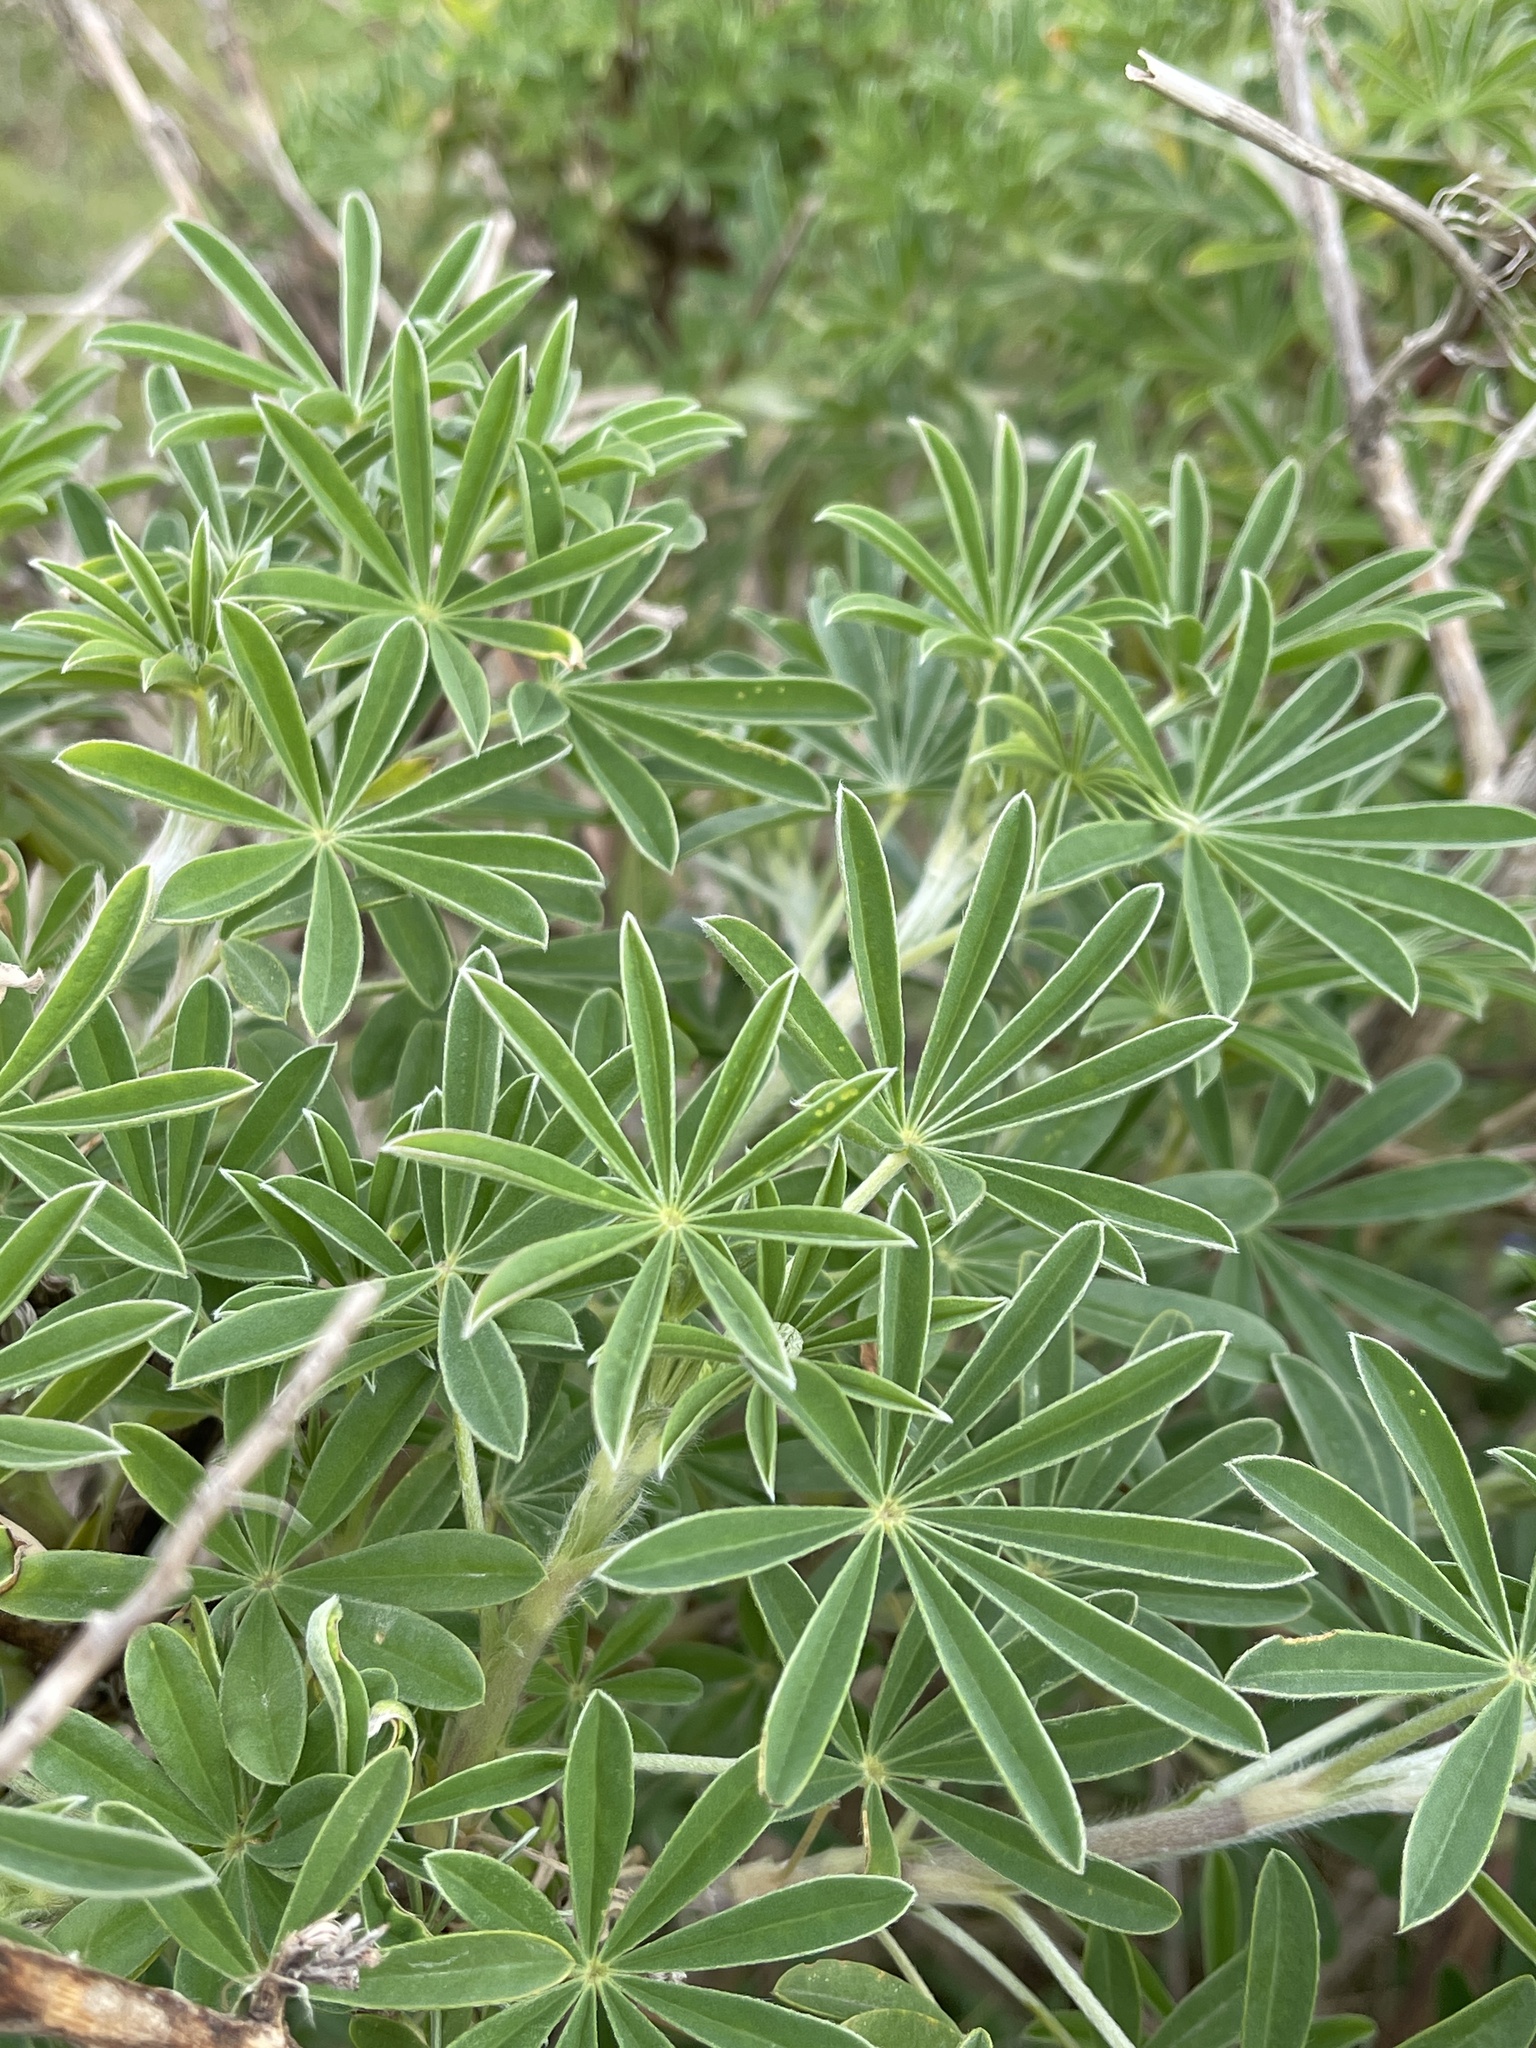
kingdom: Plantae
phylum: Tracheophyta
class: Magnoliopsida
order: Fabales
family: Fabaceae
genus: Lupinus
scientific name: Lupinus arboreus
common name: Yellow bush lupine
